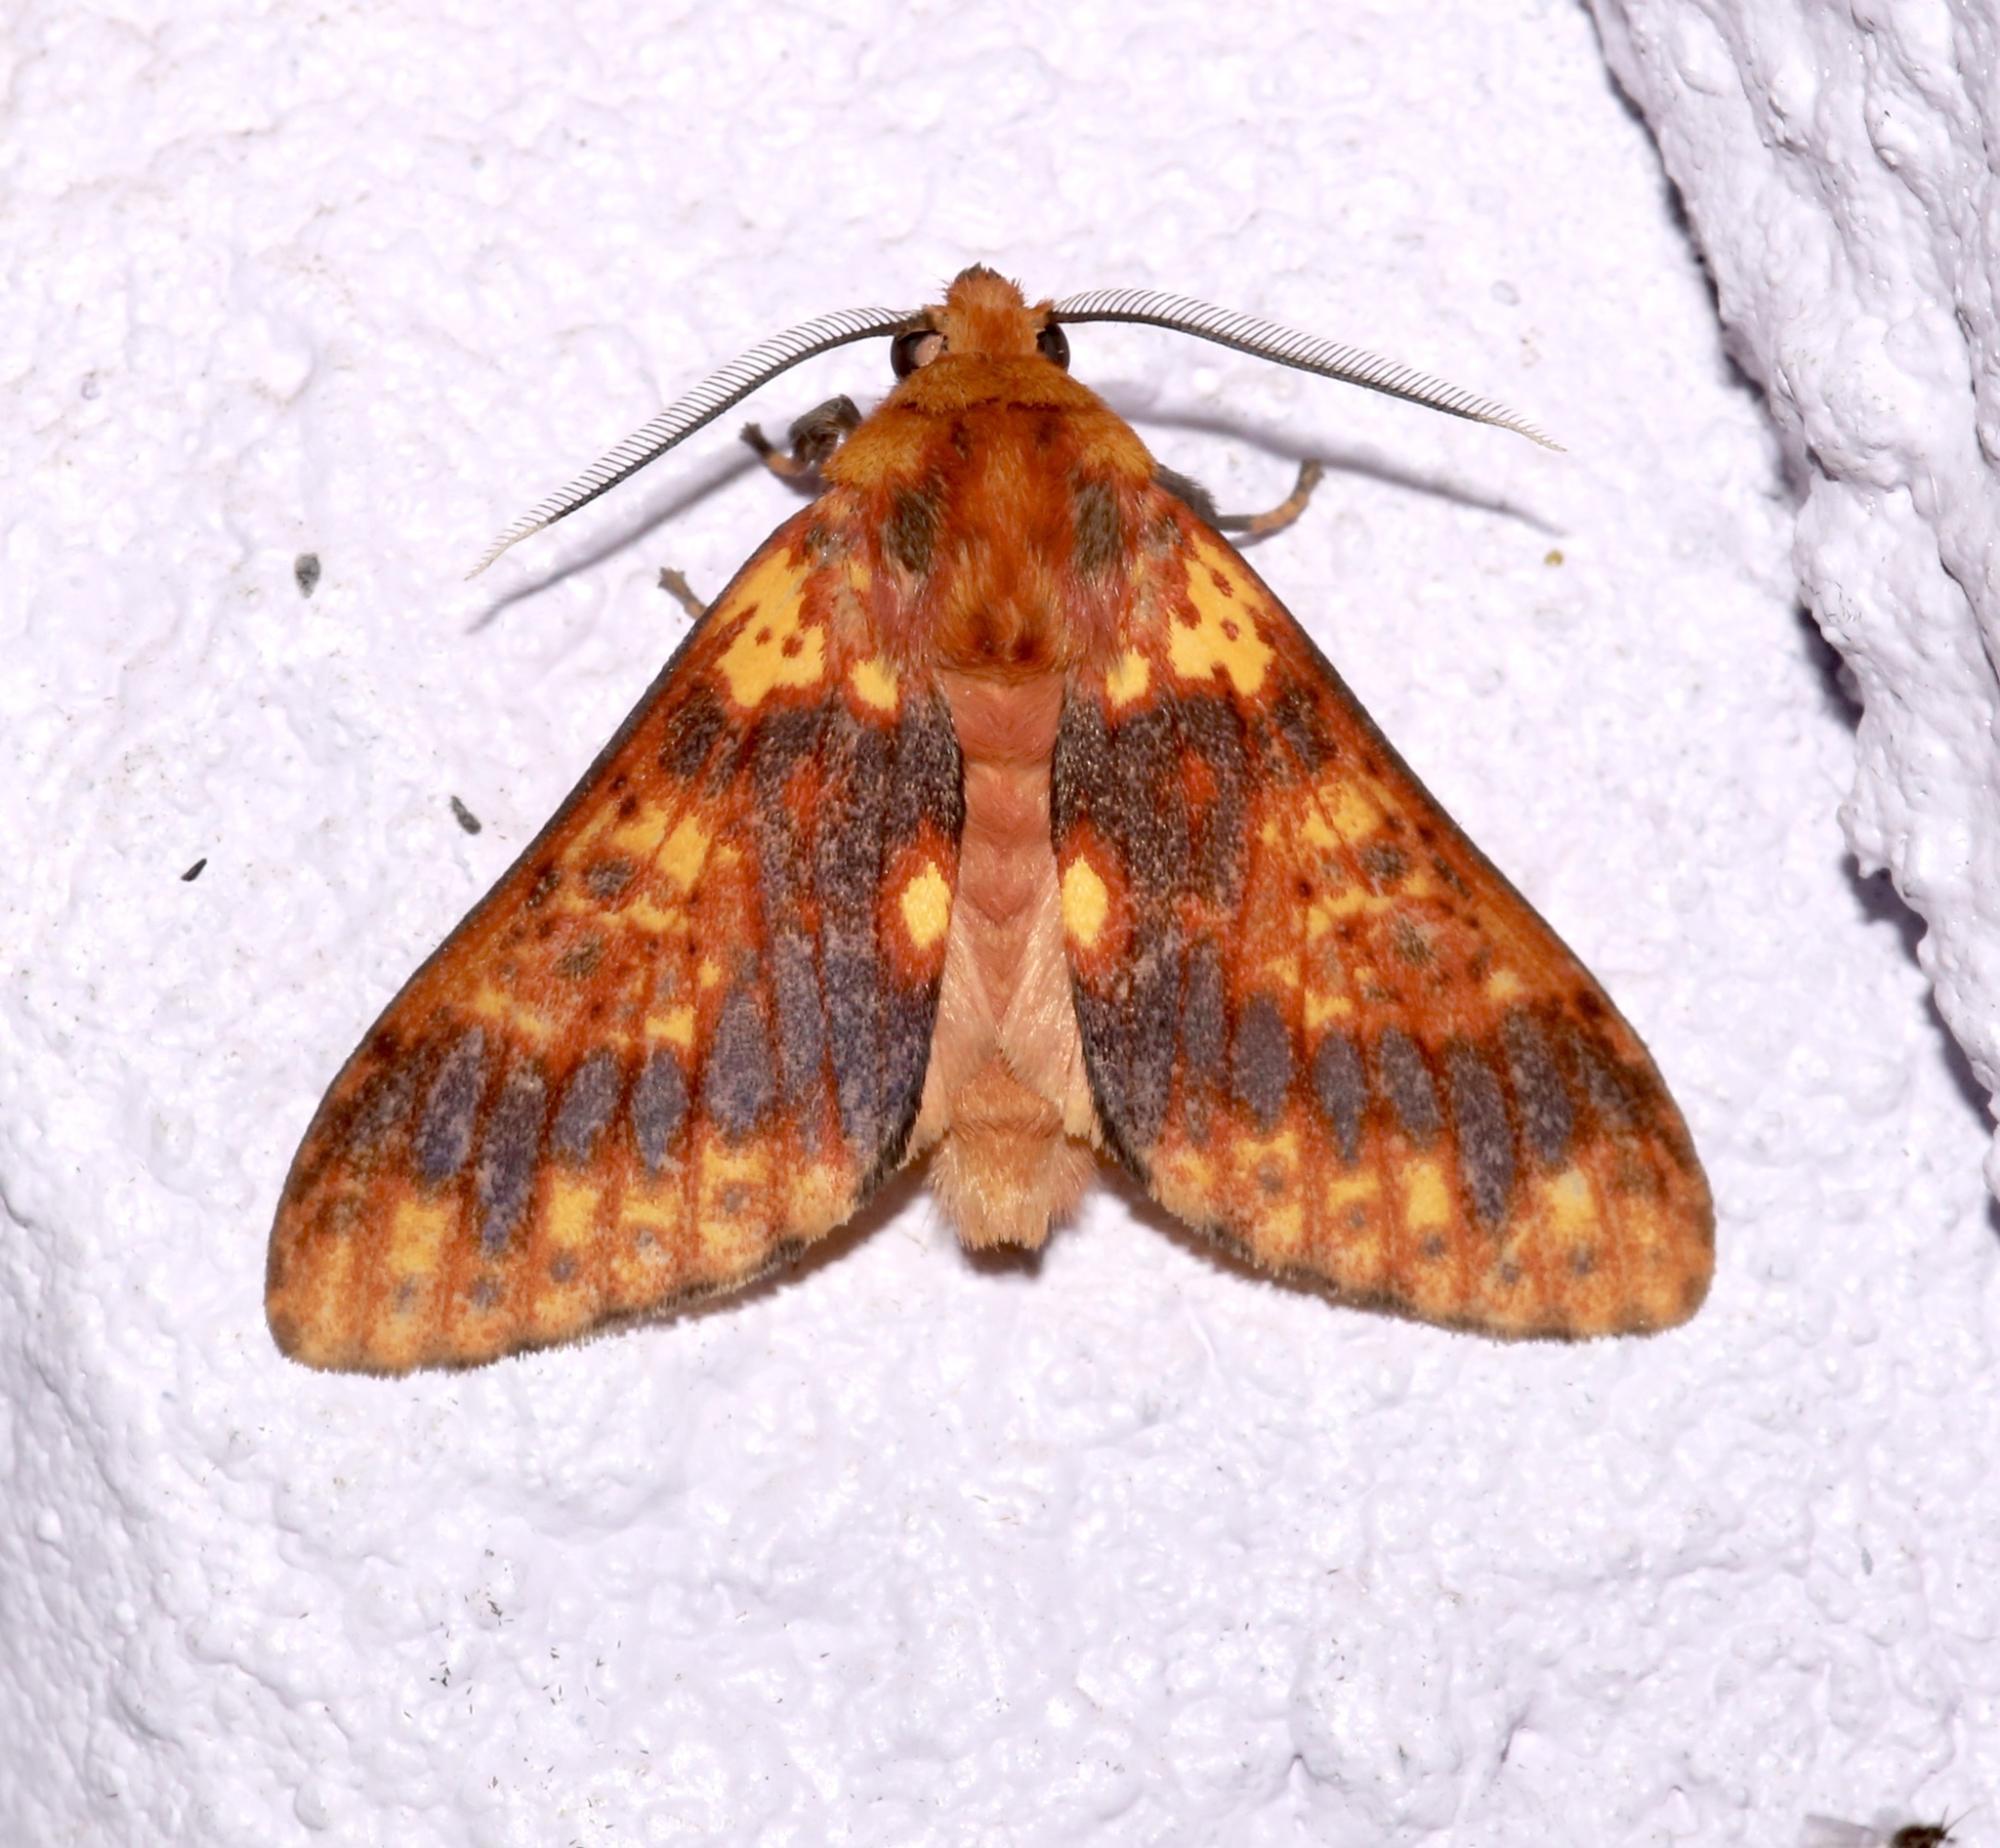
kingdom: Animalia
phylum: Arthropoda
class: Insecta
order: Lepidoptera
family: Erebidae
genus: Symphlebia
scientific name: Symphlebia perflua
